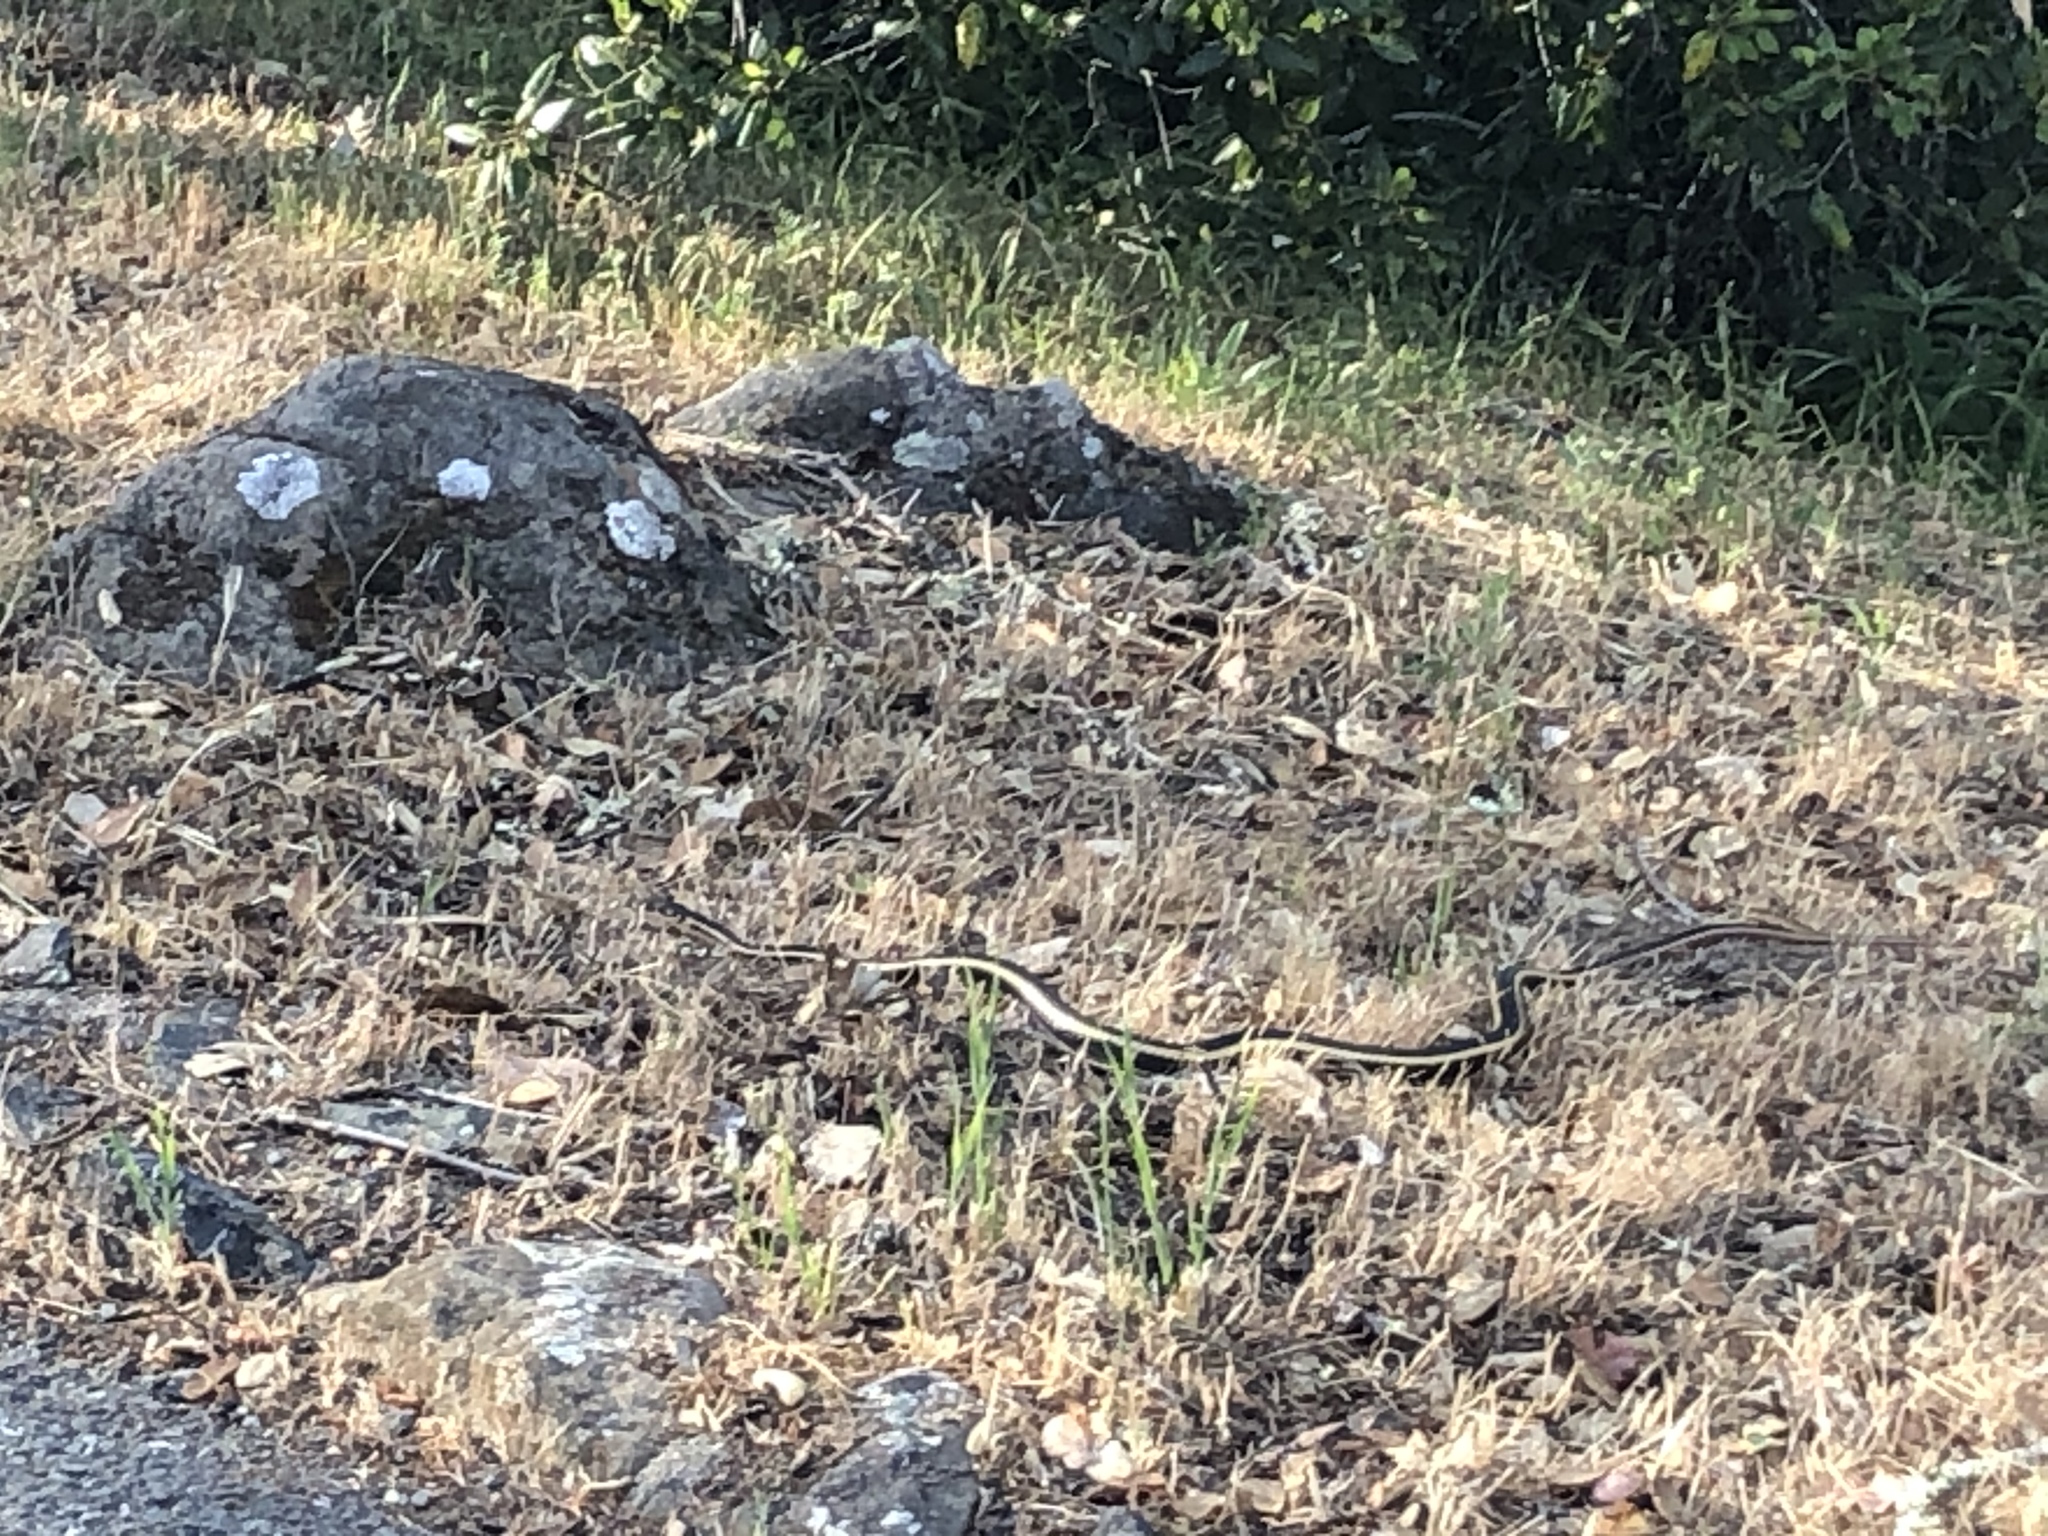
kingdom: Animalia
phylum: Chordata
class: Squamata
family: Colubridae
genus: Masticophis
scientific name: Masticophis lateralis
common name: Striped racer
